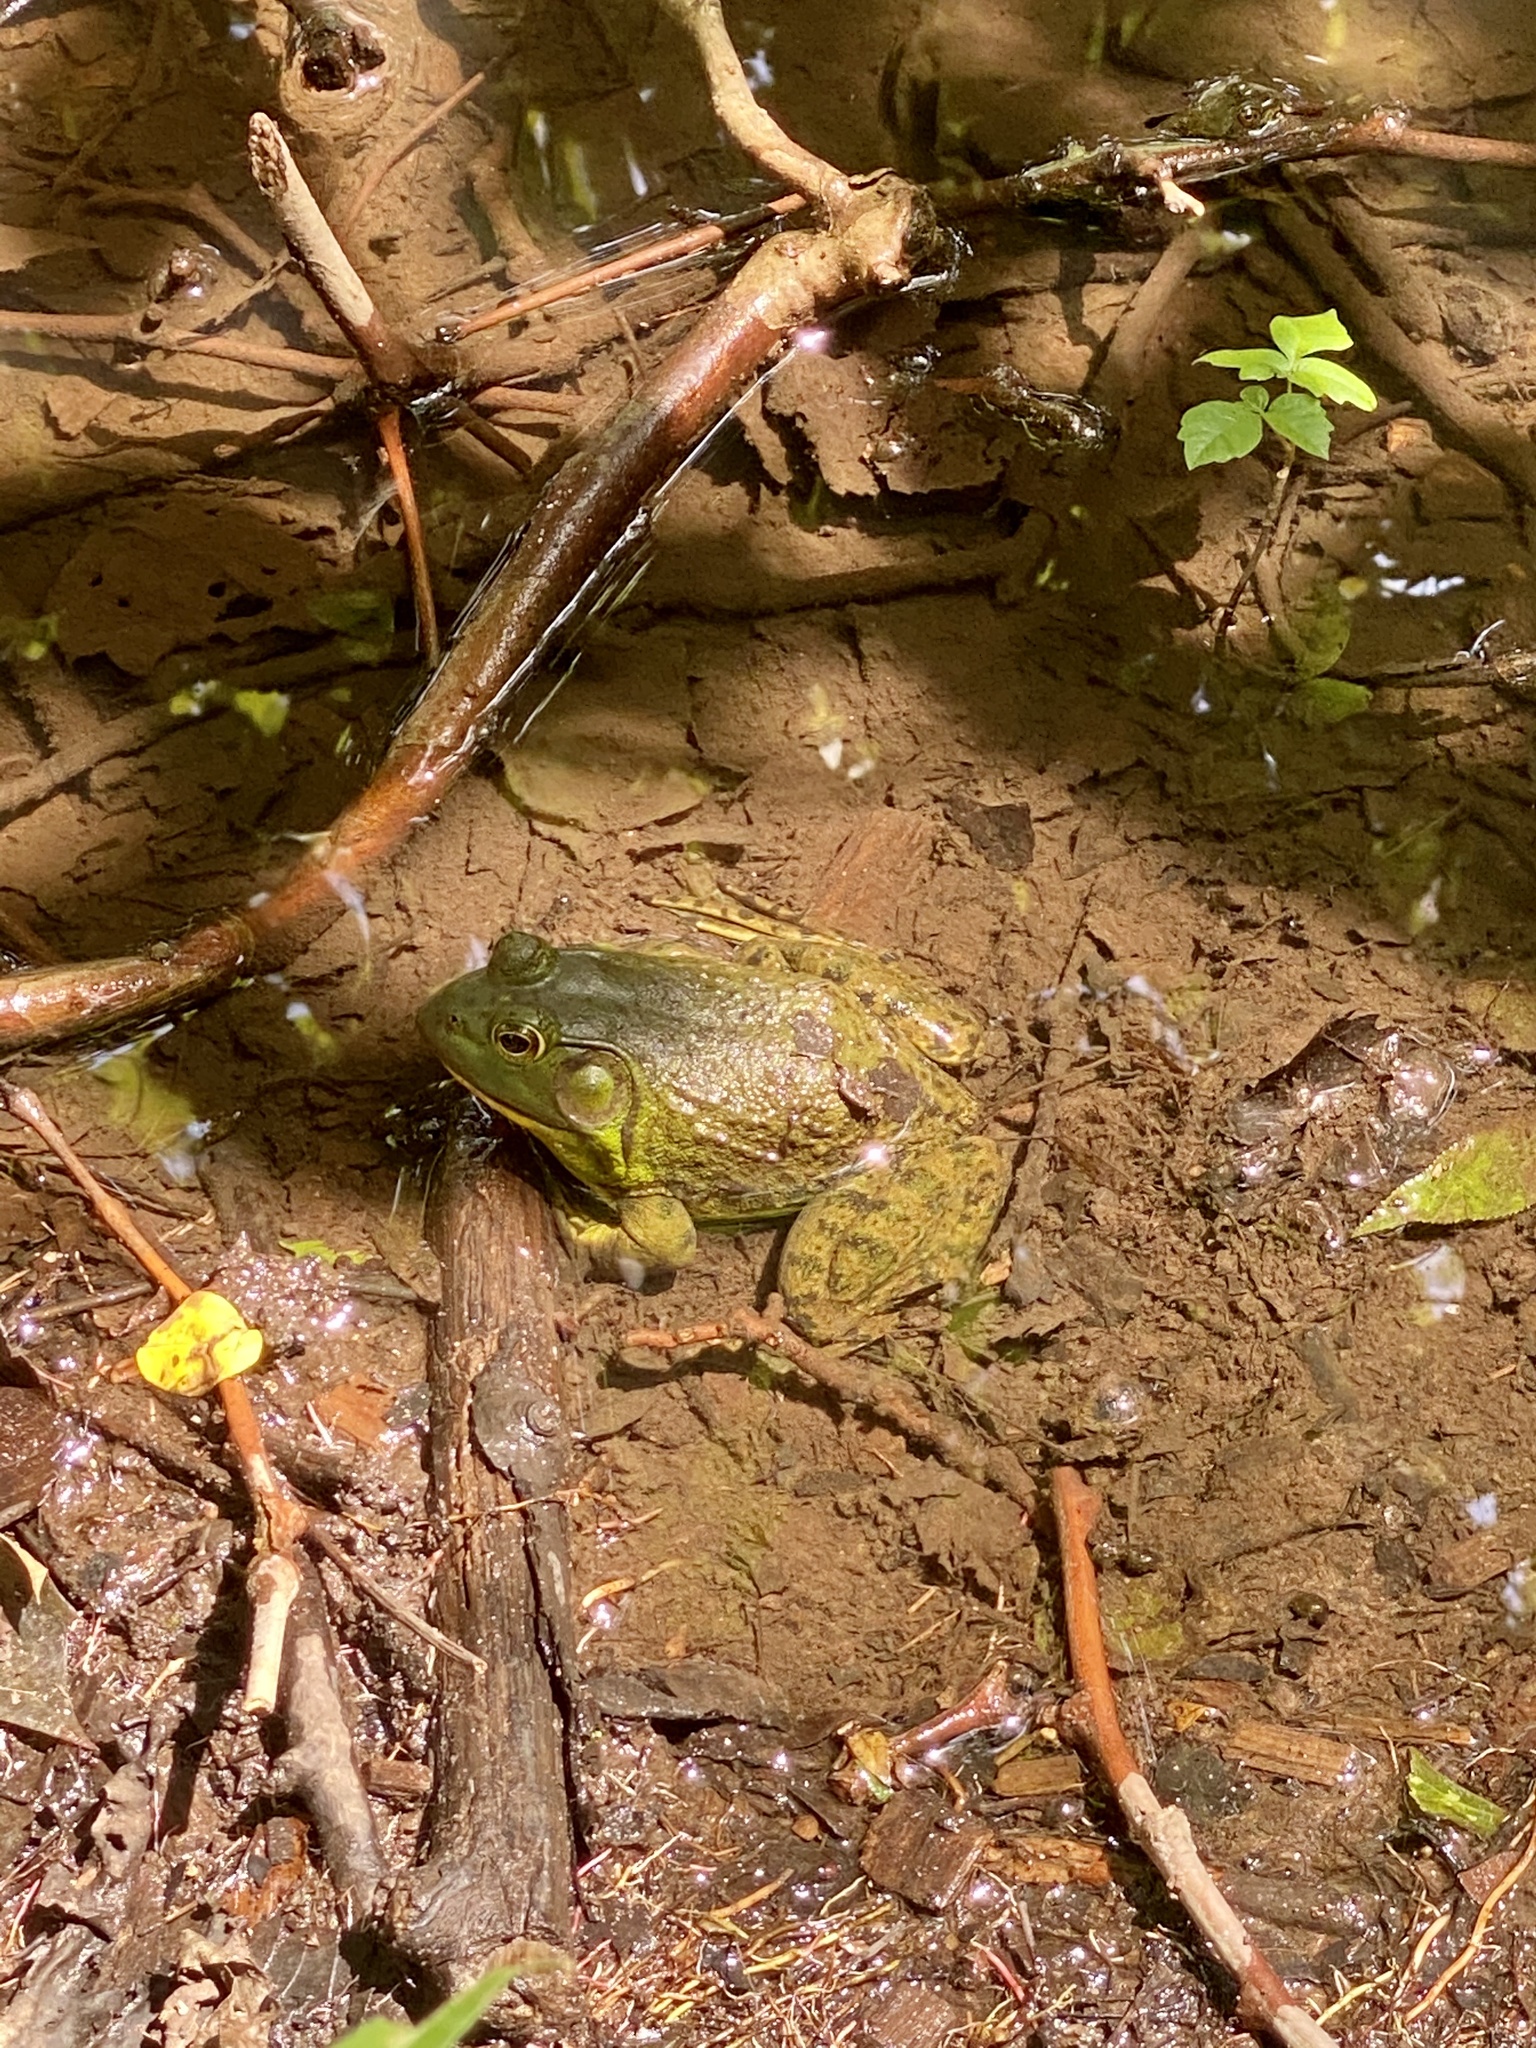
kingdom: Animalia
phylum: Chordata
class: Amphibia
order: Anura
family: Ranidae
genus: Lithobates
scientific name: Lithobates catesbeianus
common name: American bullfrog
